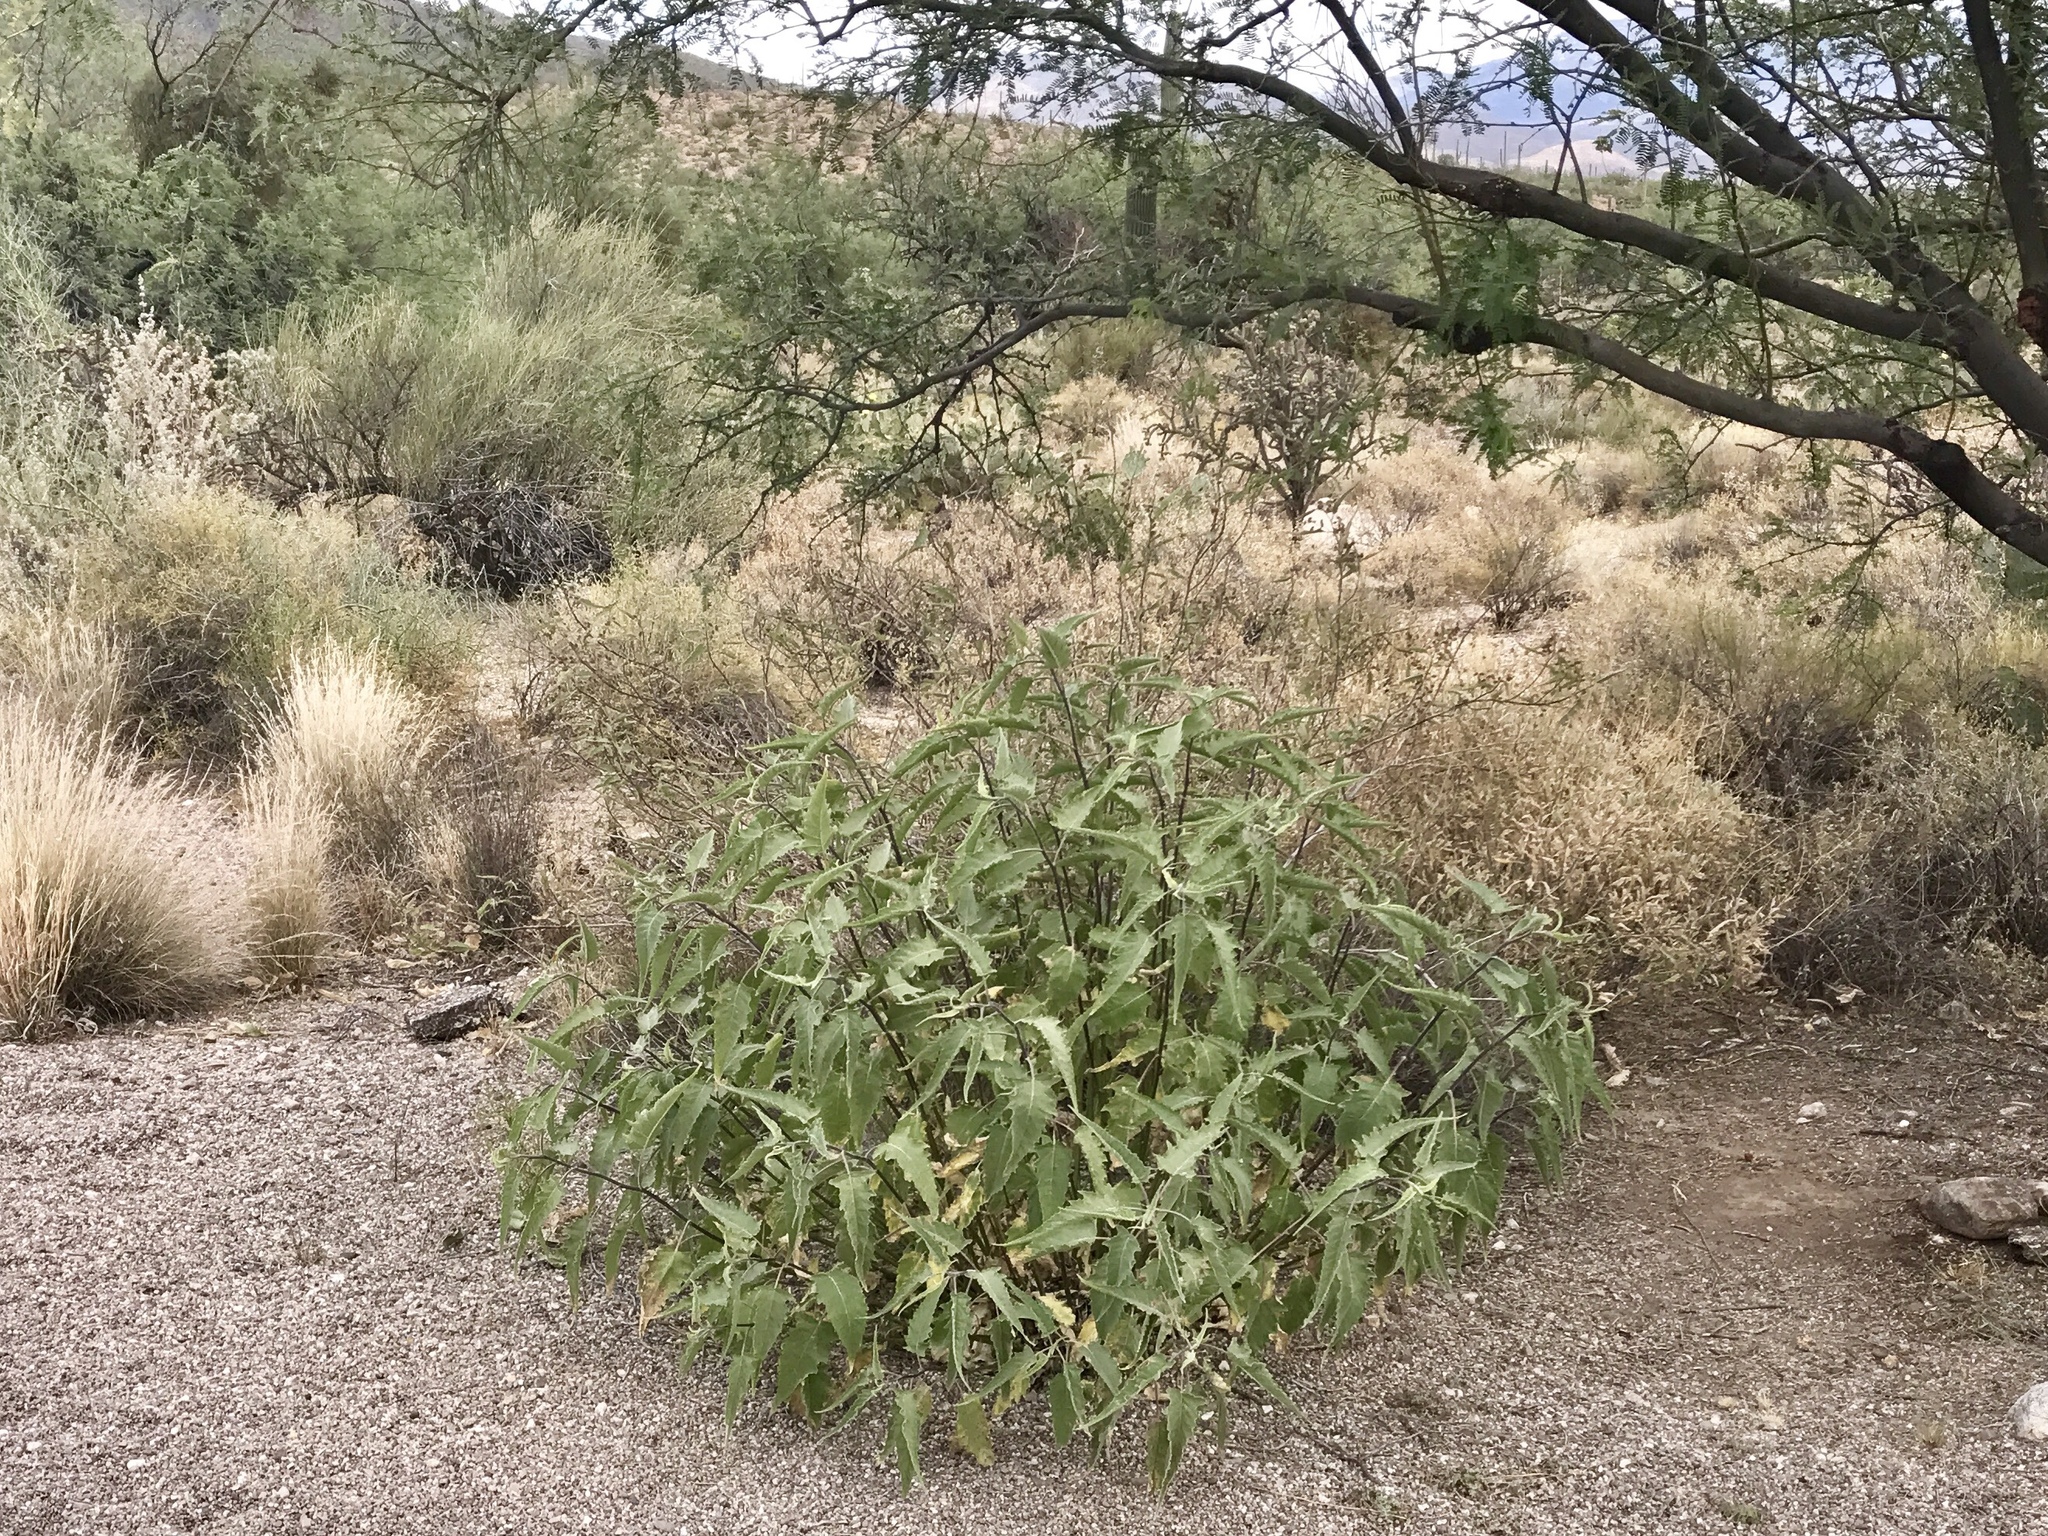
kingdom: Plantae
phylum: Tracheophyta
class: Magnoliopsida
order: Asterales
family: Asteraceae
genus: Ambrosia
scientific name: Ambrosia ambrosioides
